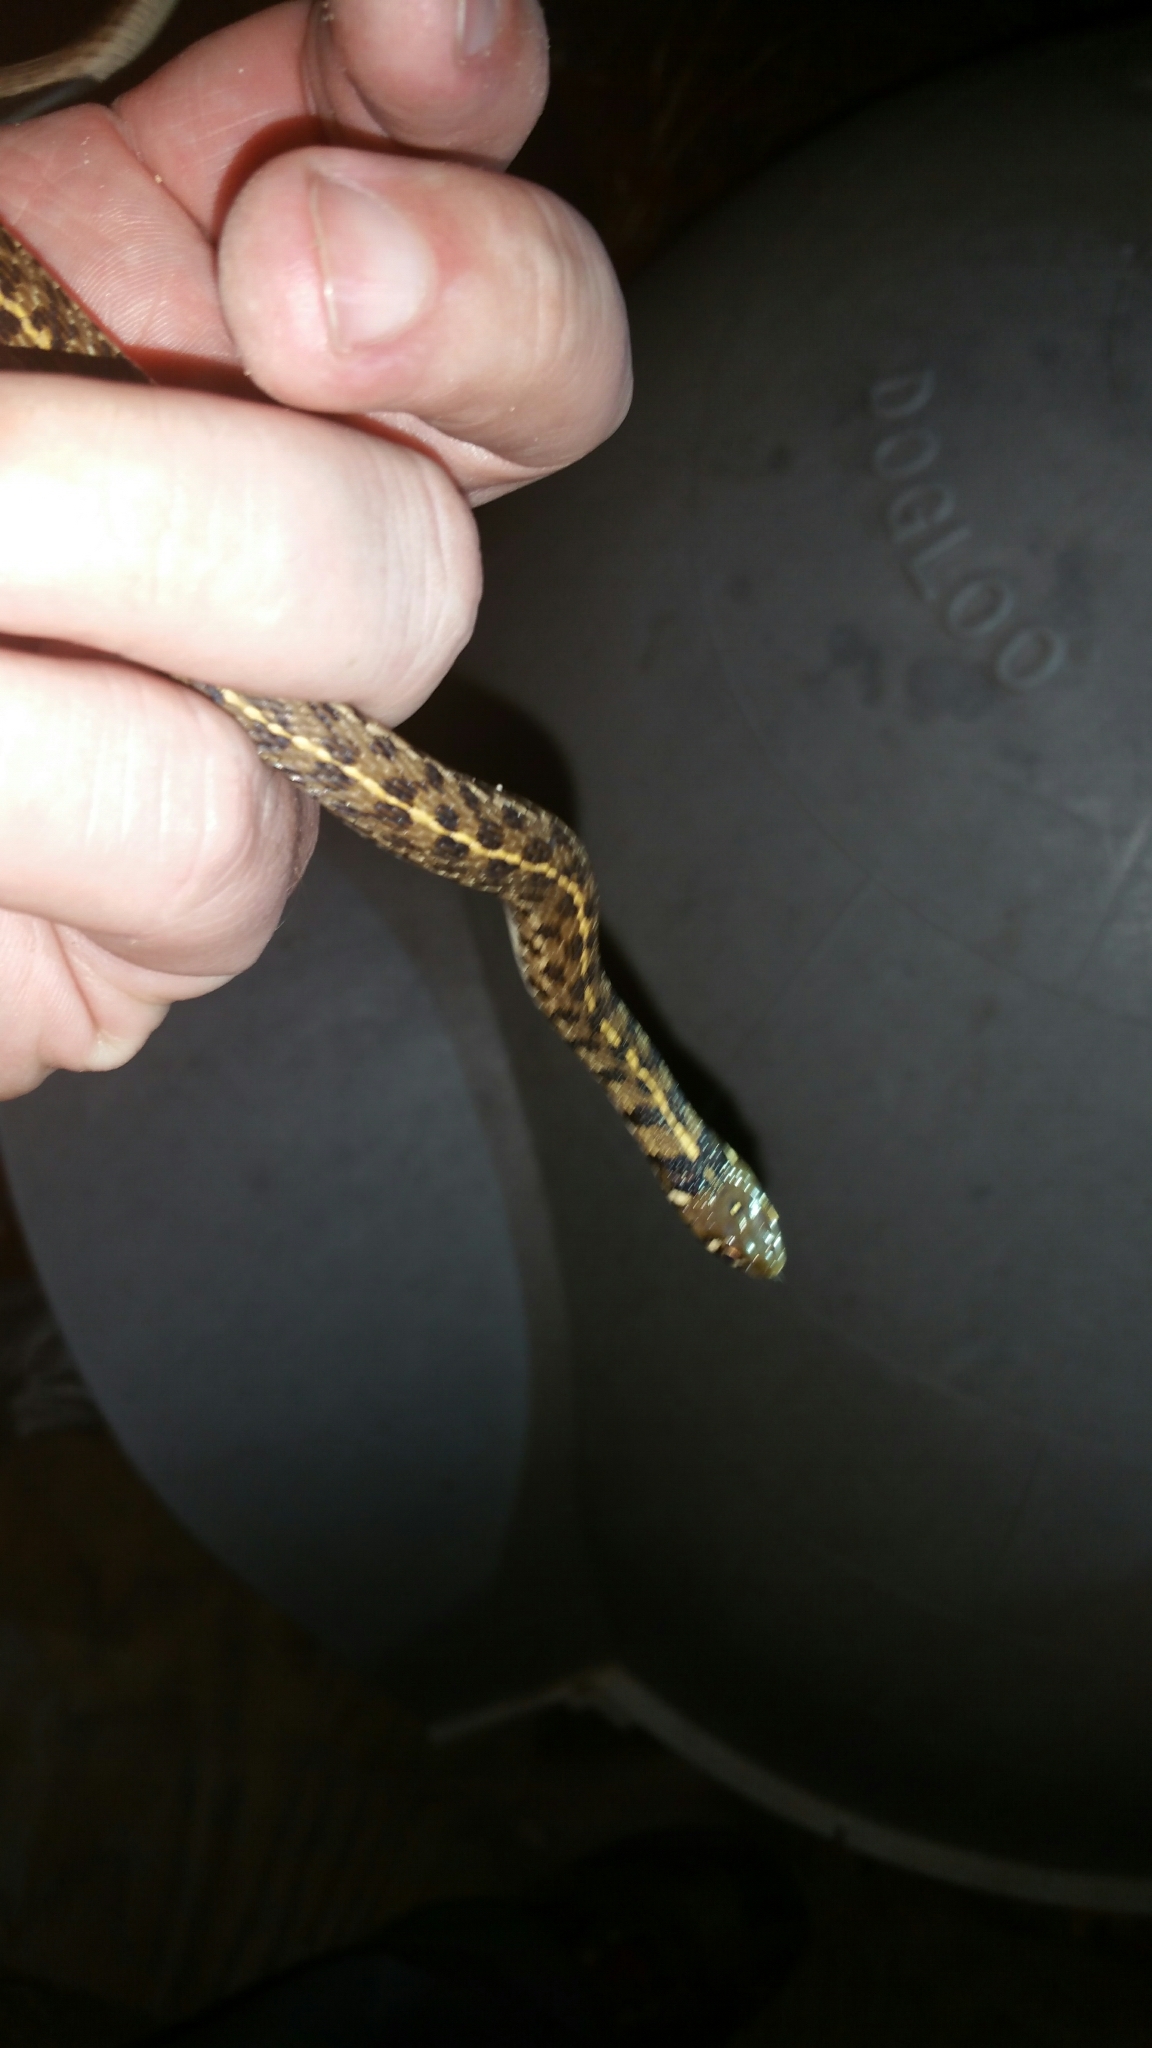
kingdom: Animalia
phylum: Chordata
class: Squamata
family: Colubridae
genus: Thamnophis
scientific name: Thamnophis marcianus
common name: Checkered garter snake
